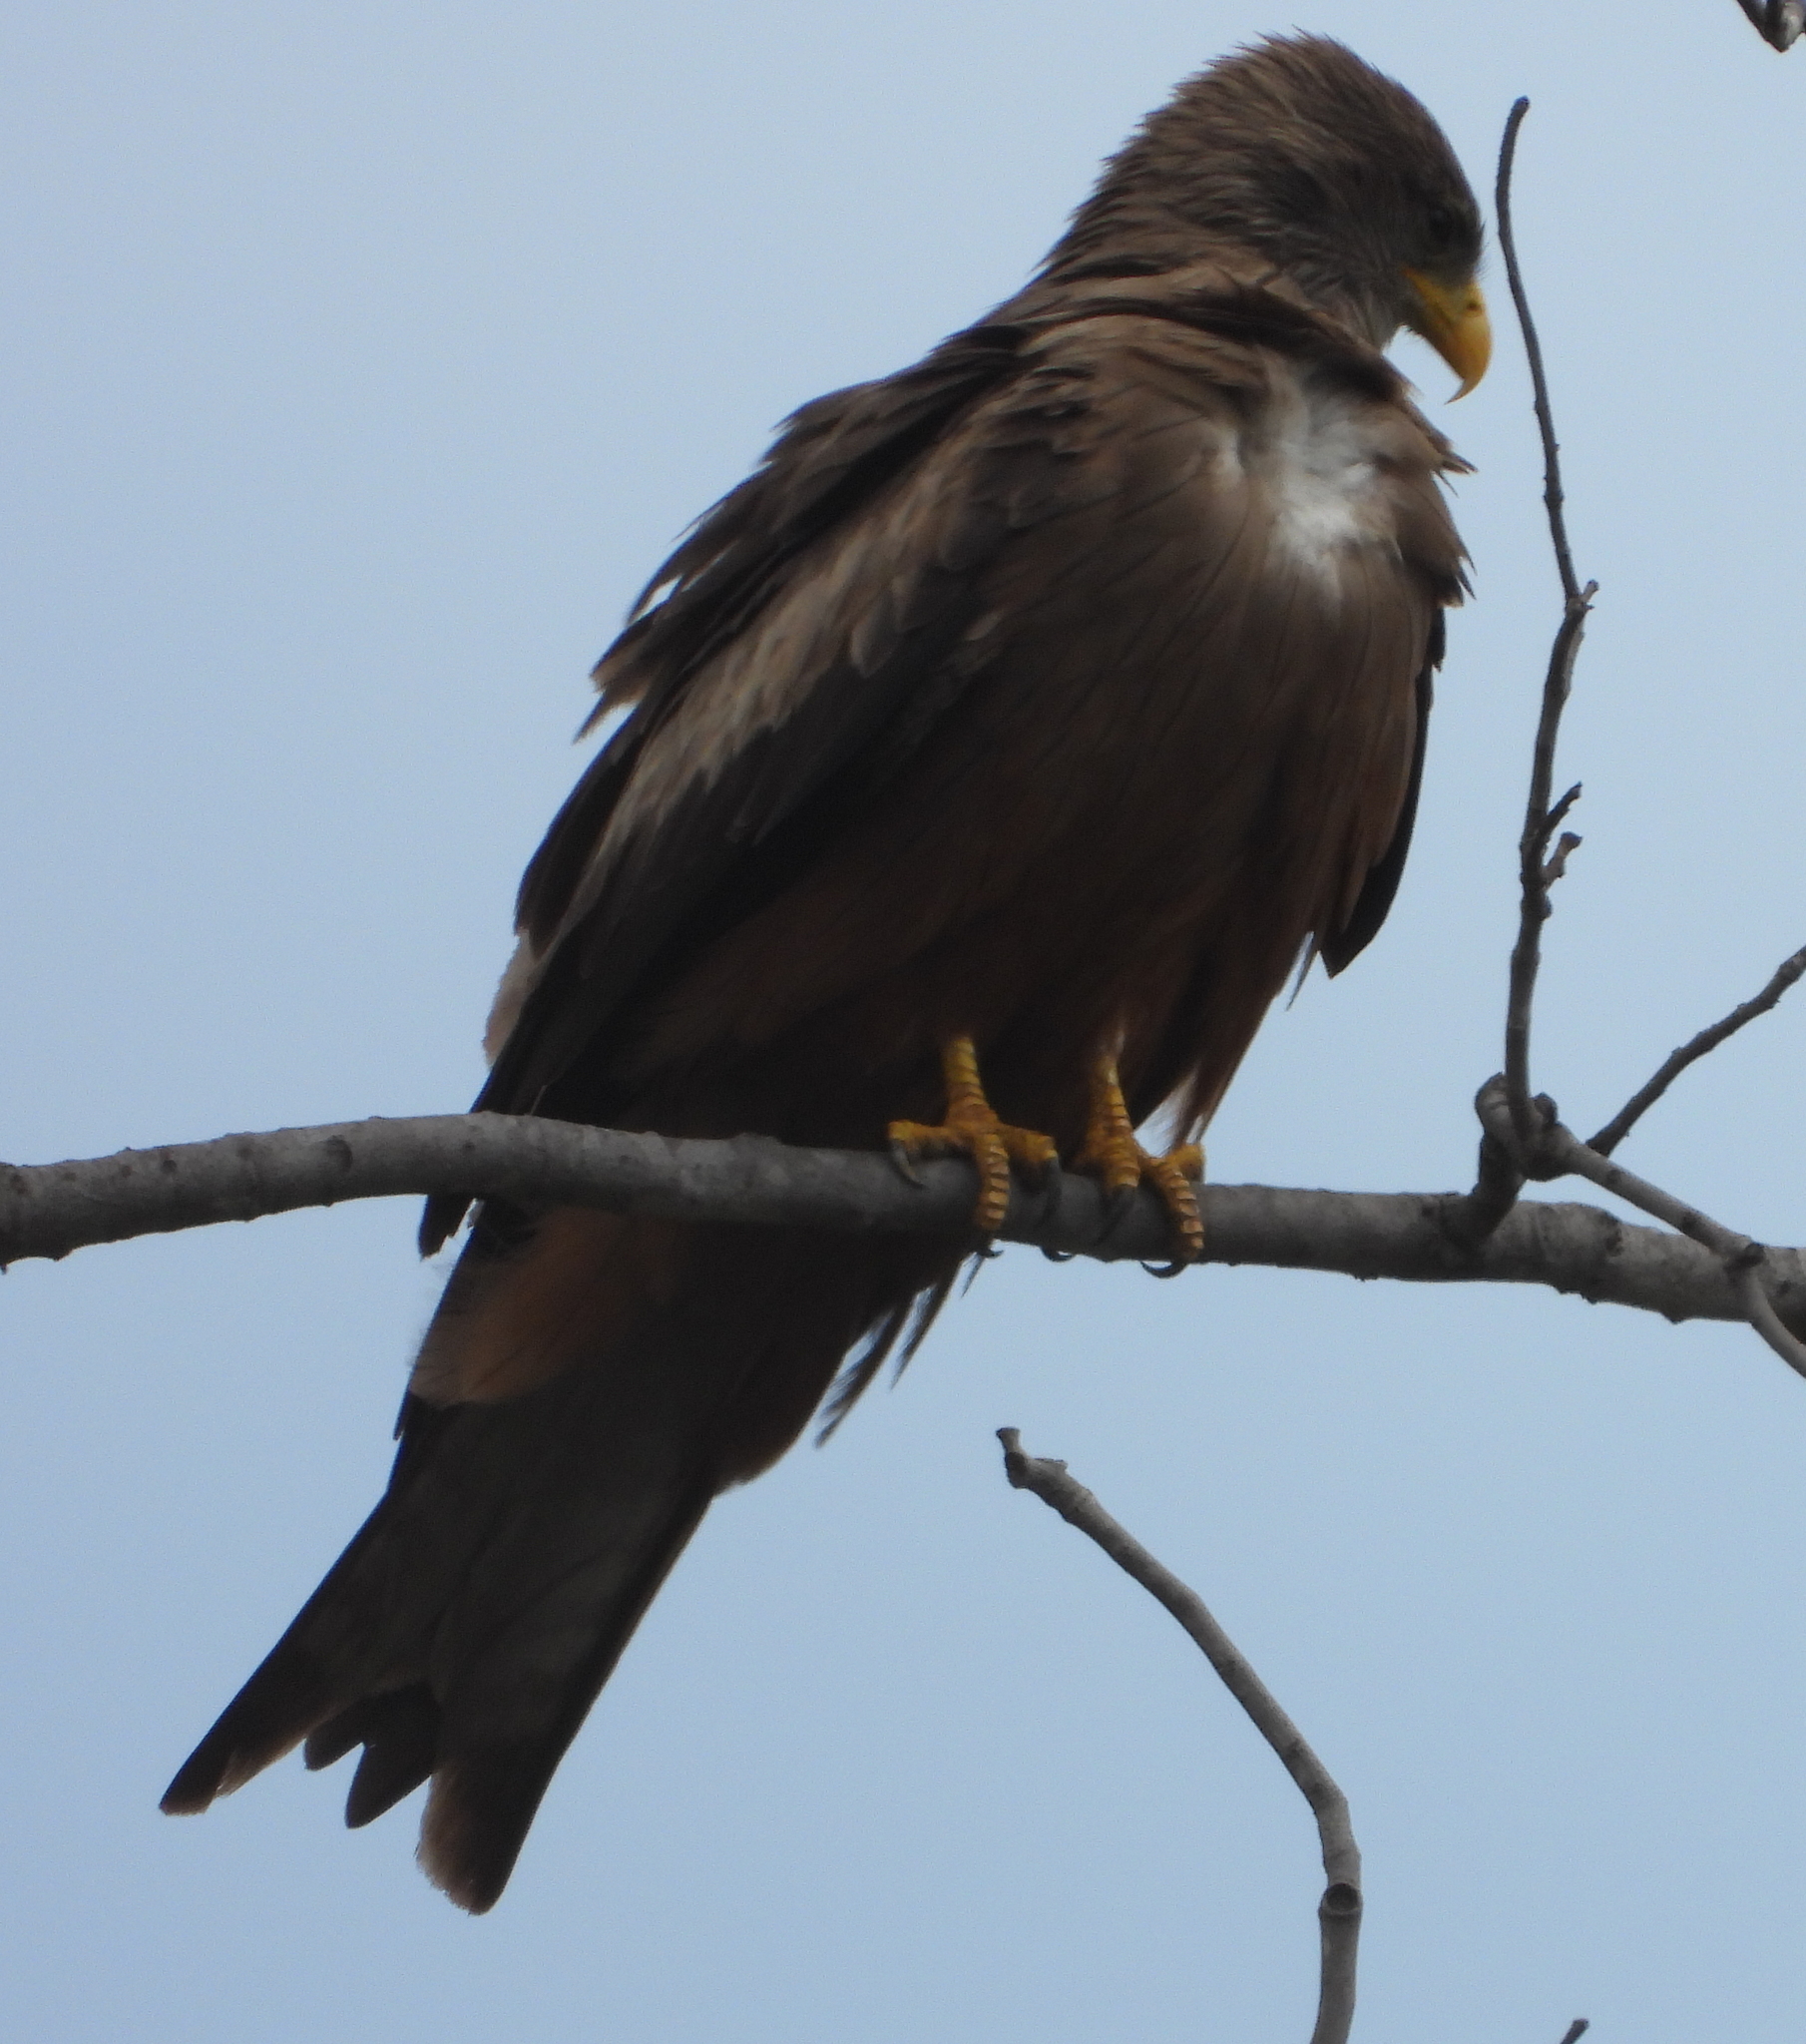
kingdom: Animalia
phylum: Chordata
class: Aves
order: Accipitriformes
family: Accipitridae
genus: Milvus
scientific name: Milvus migrans
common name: Black kite
